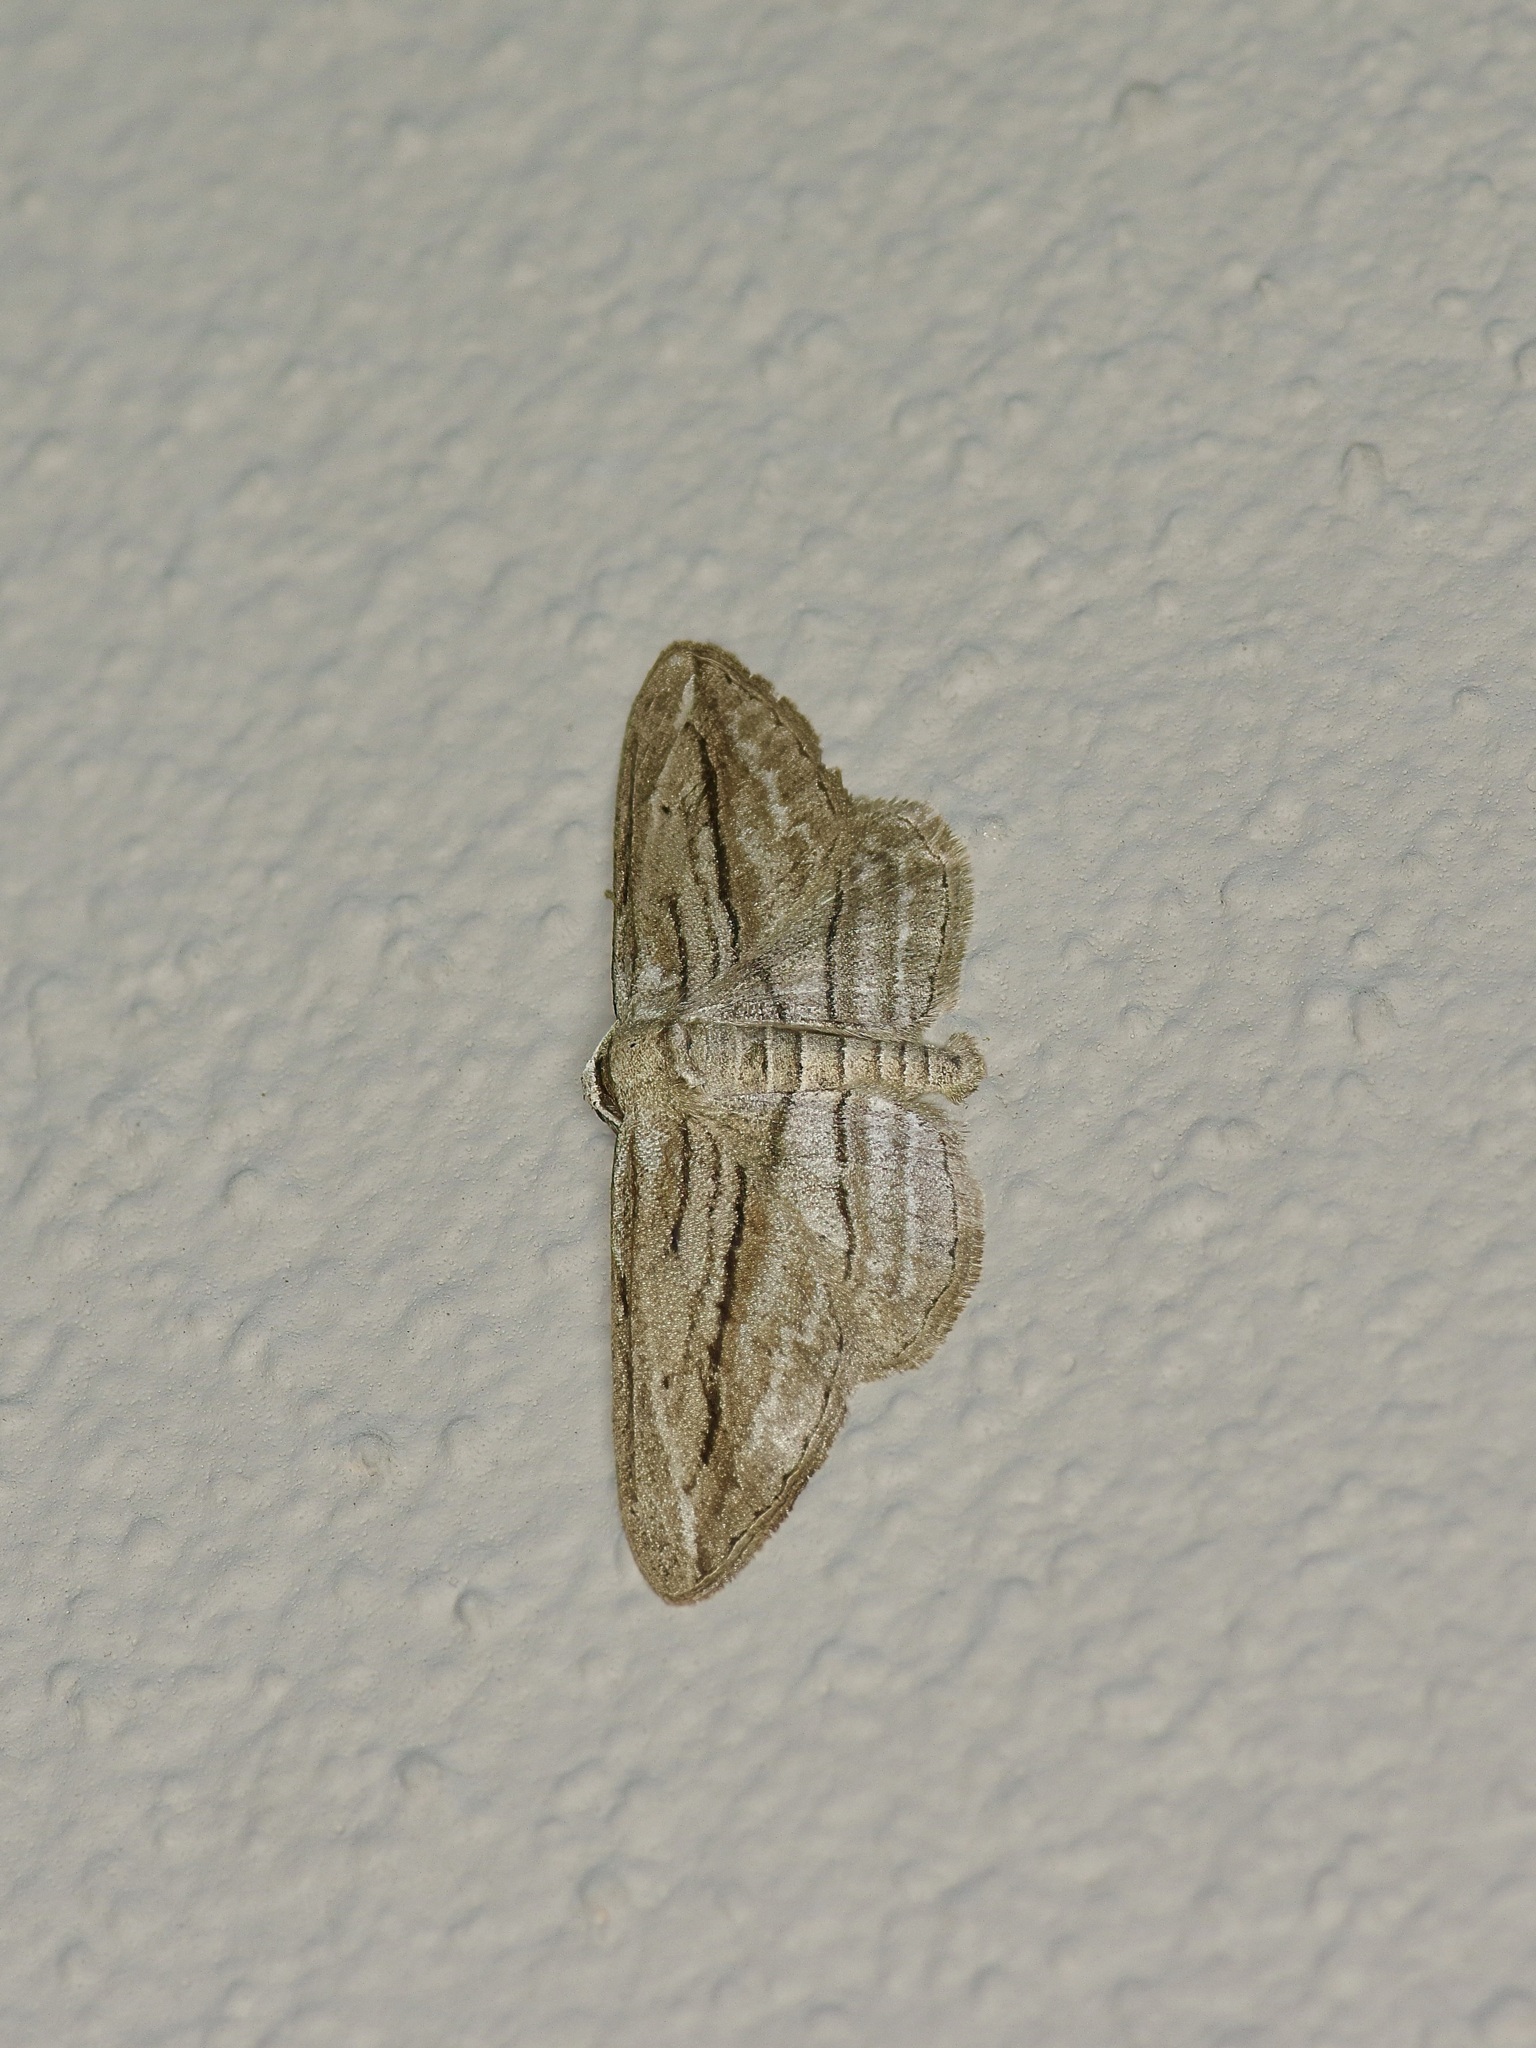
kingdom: Animalia
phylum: Arthropoda
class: Insecta
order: Lepidoptera
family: Geometridae
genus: Glena
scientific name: Glena quinquelinearia
